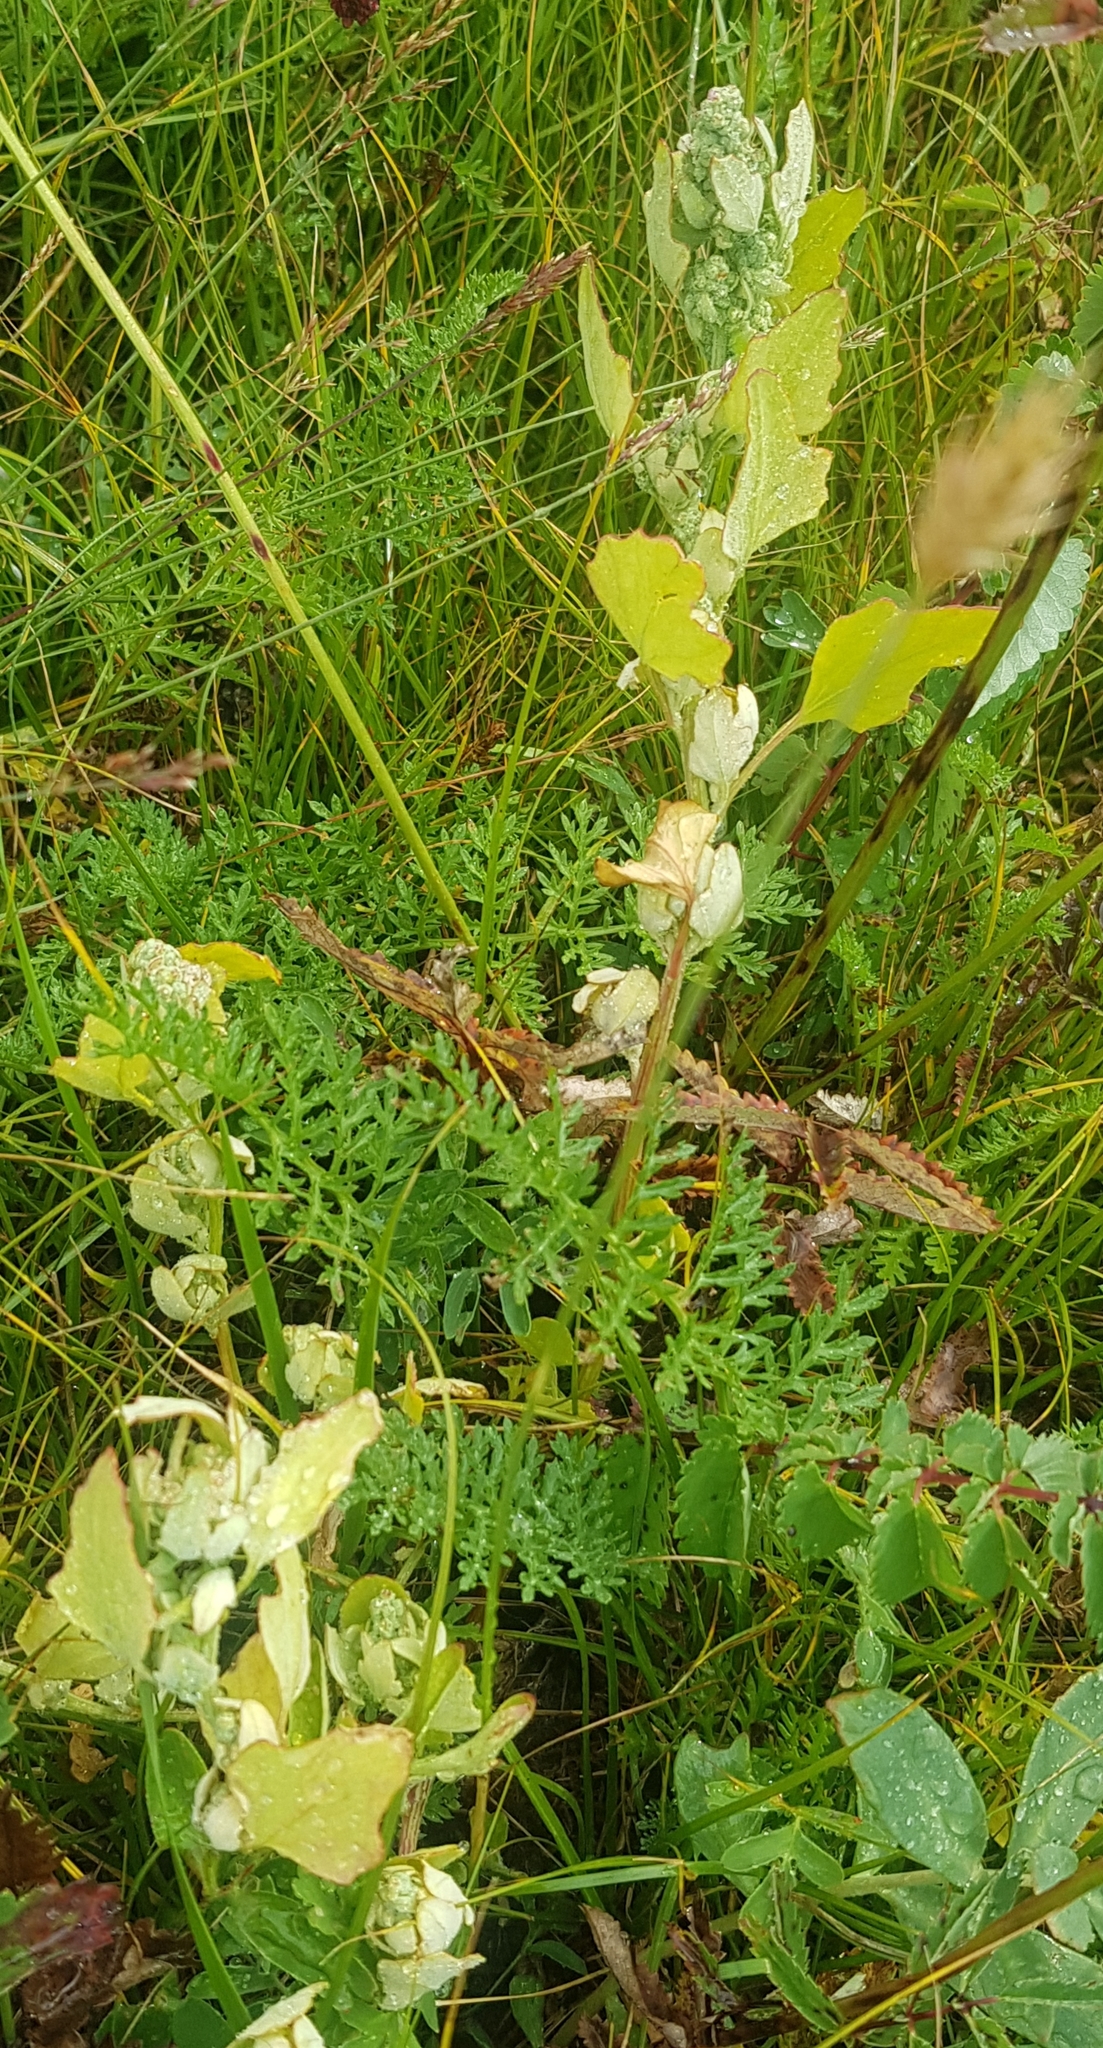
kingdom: Plantae
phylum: Tracheophyta
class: Magnoliopsida
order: Caryophyllales
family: Amaranthaceae
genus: Chenopodium
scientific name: Chenopodium album
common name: Fat-hen
